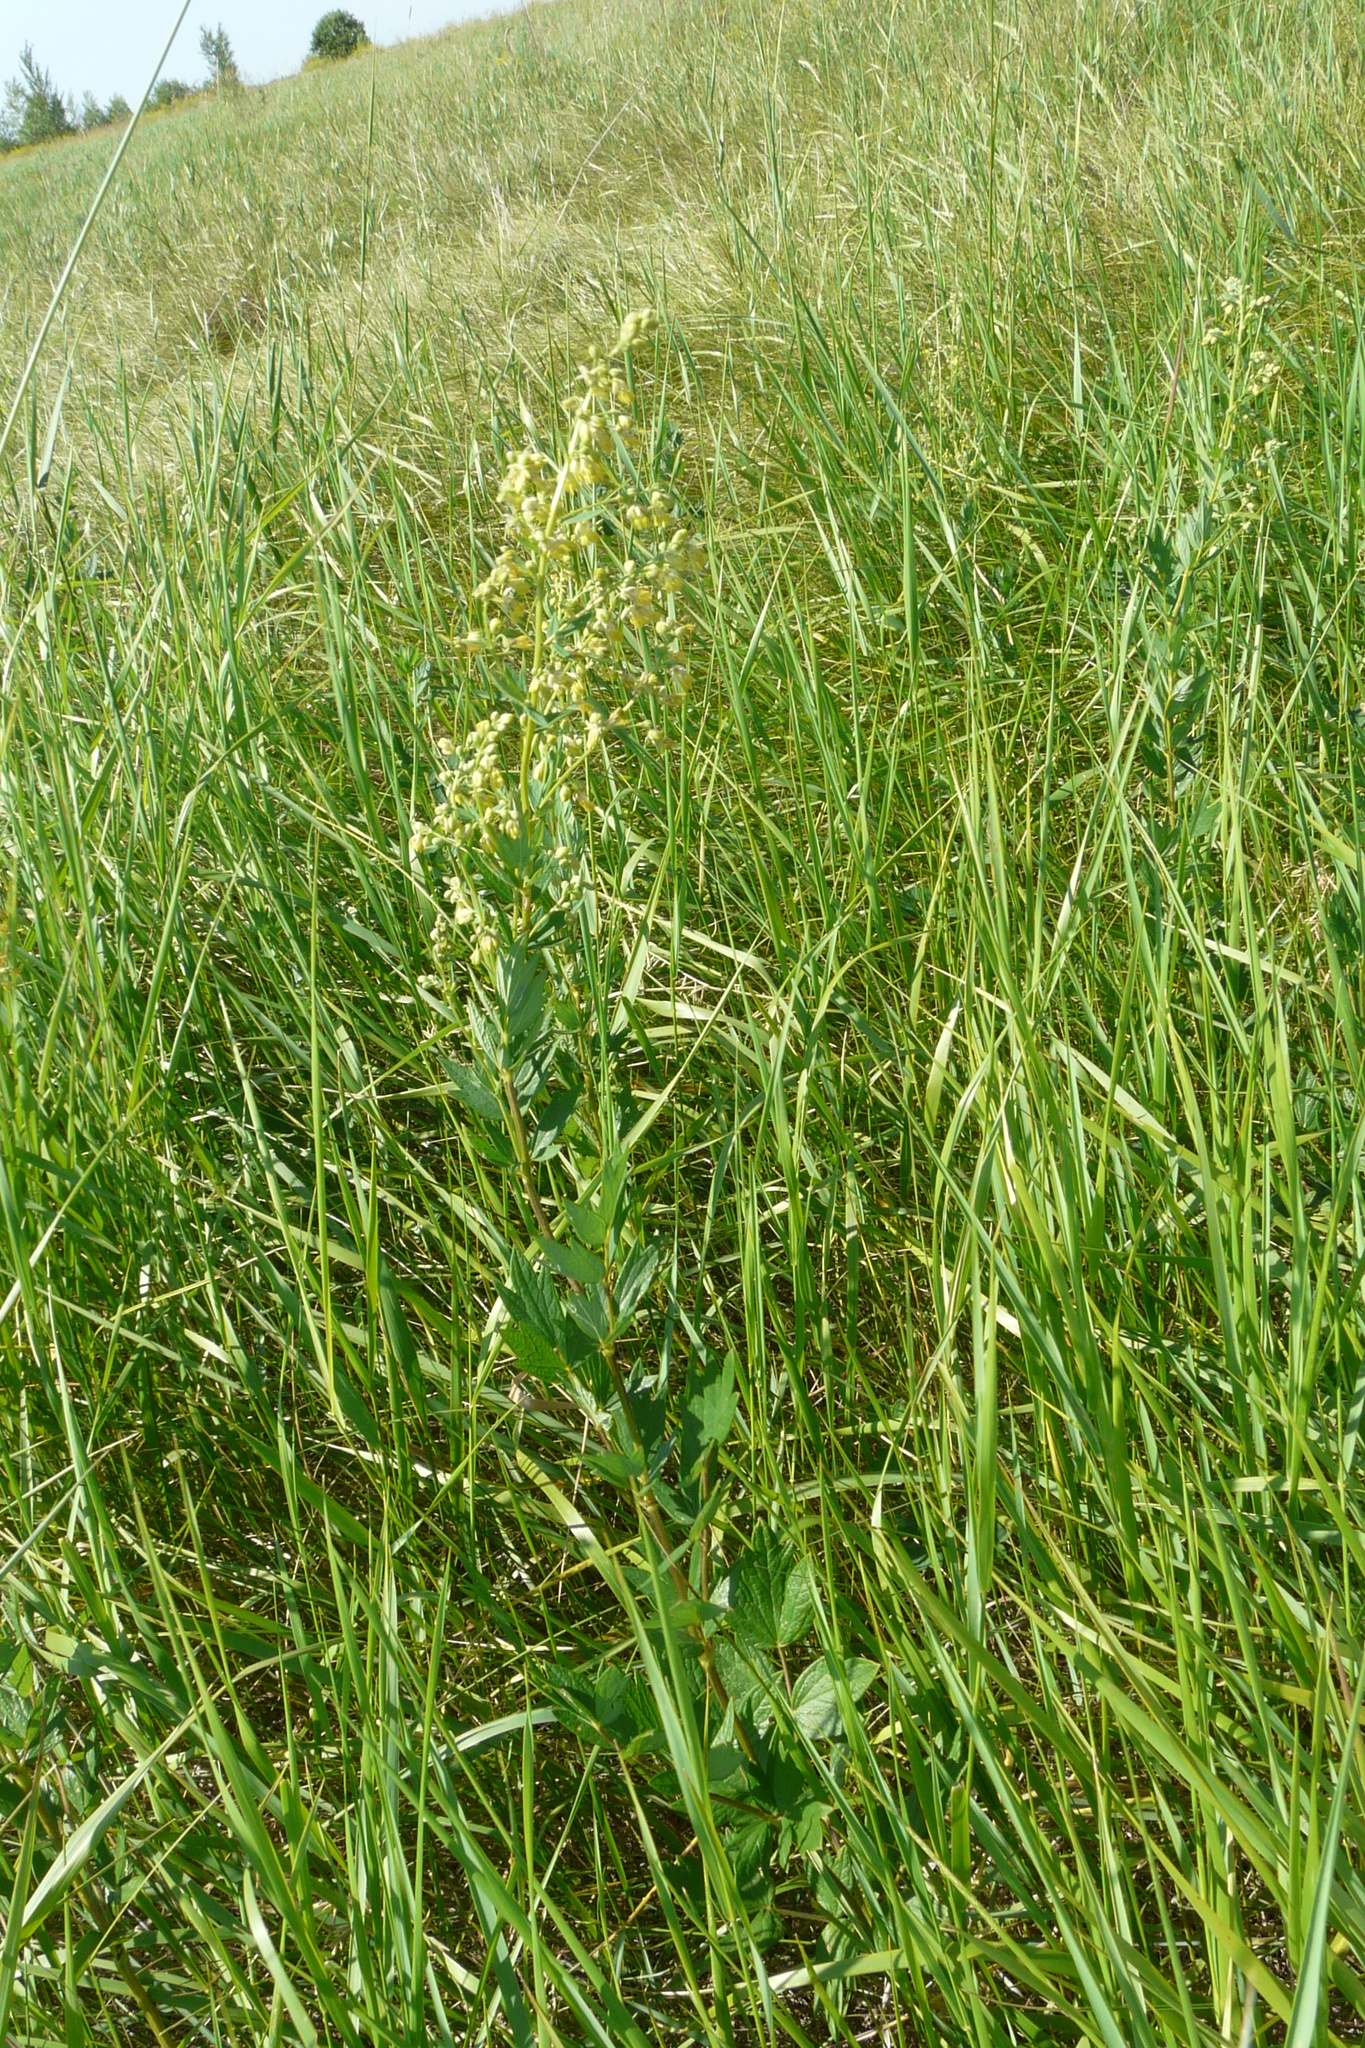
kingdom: Plantae
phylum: Tracheophyta
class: Magnoliopsida
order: Ranunculales
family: Ranunculaceae
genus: Thalictrum
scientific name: Thalictrum flavum
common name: Common meadow-rue
